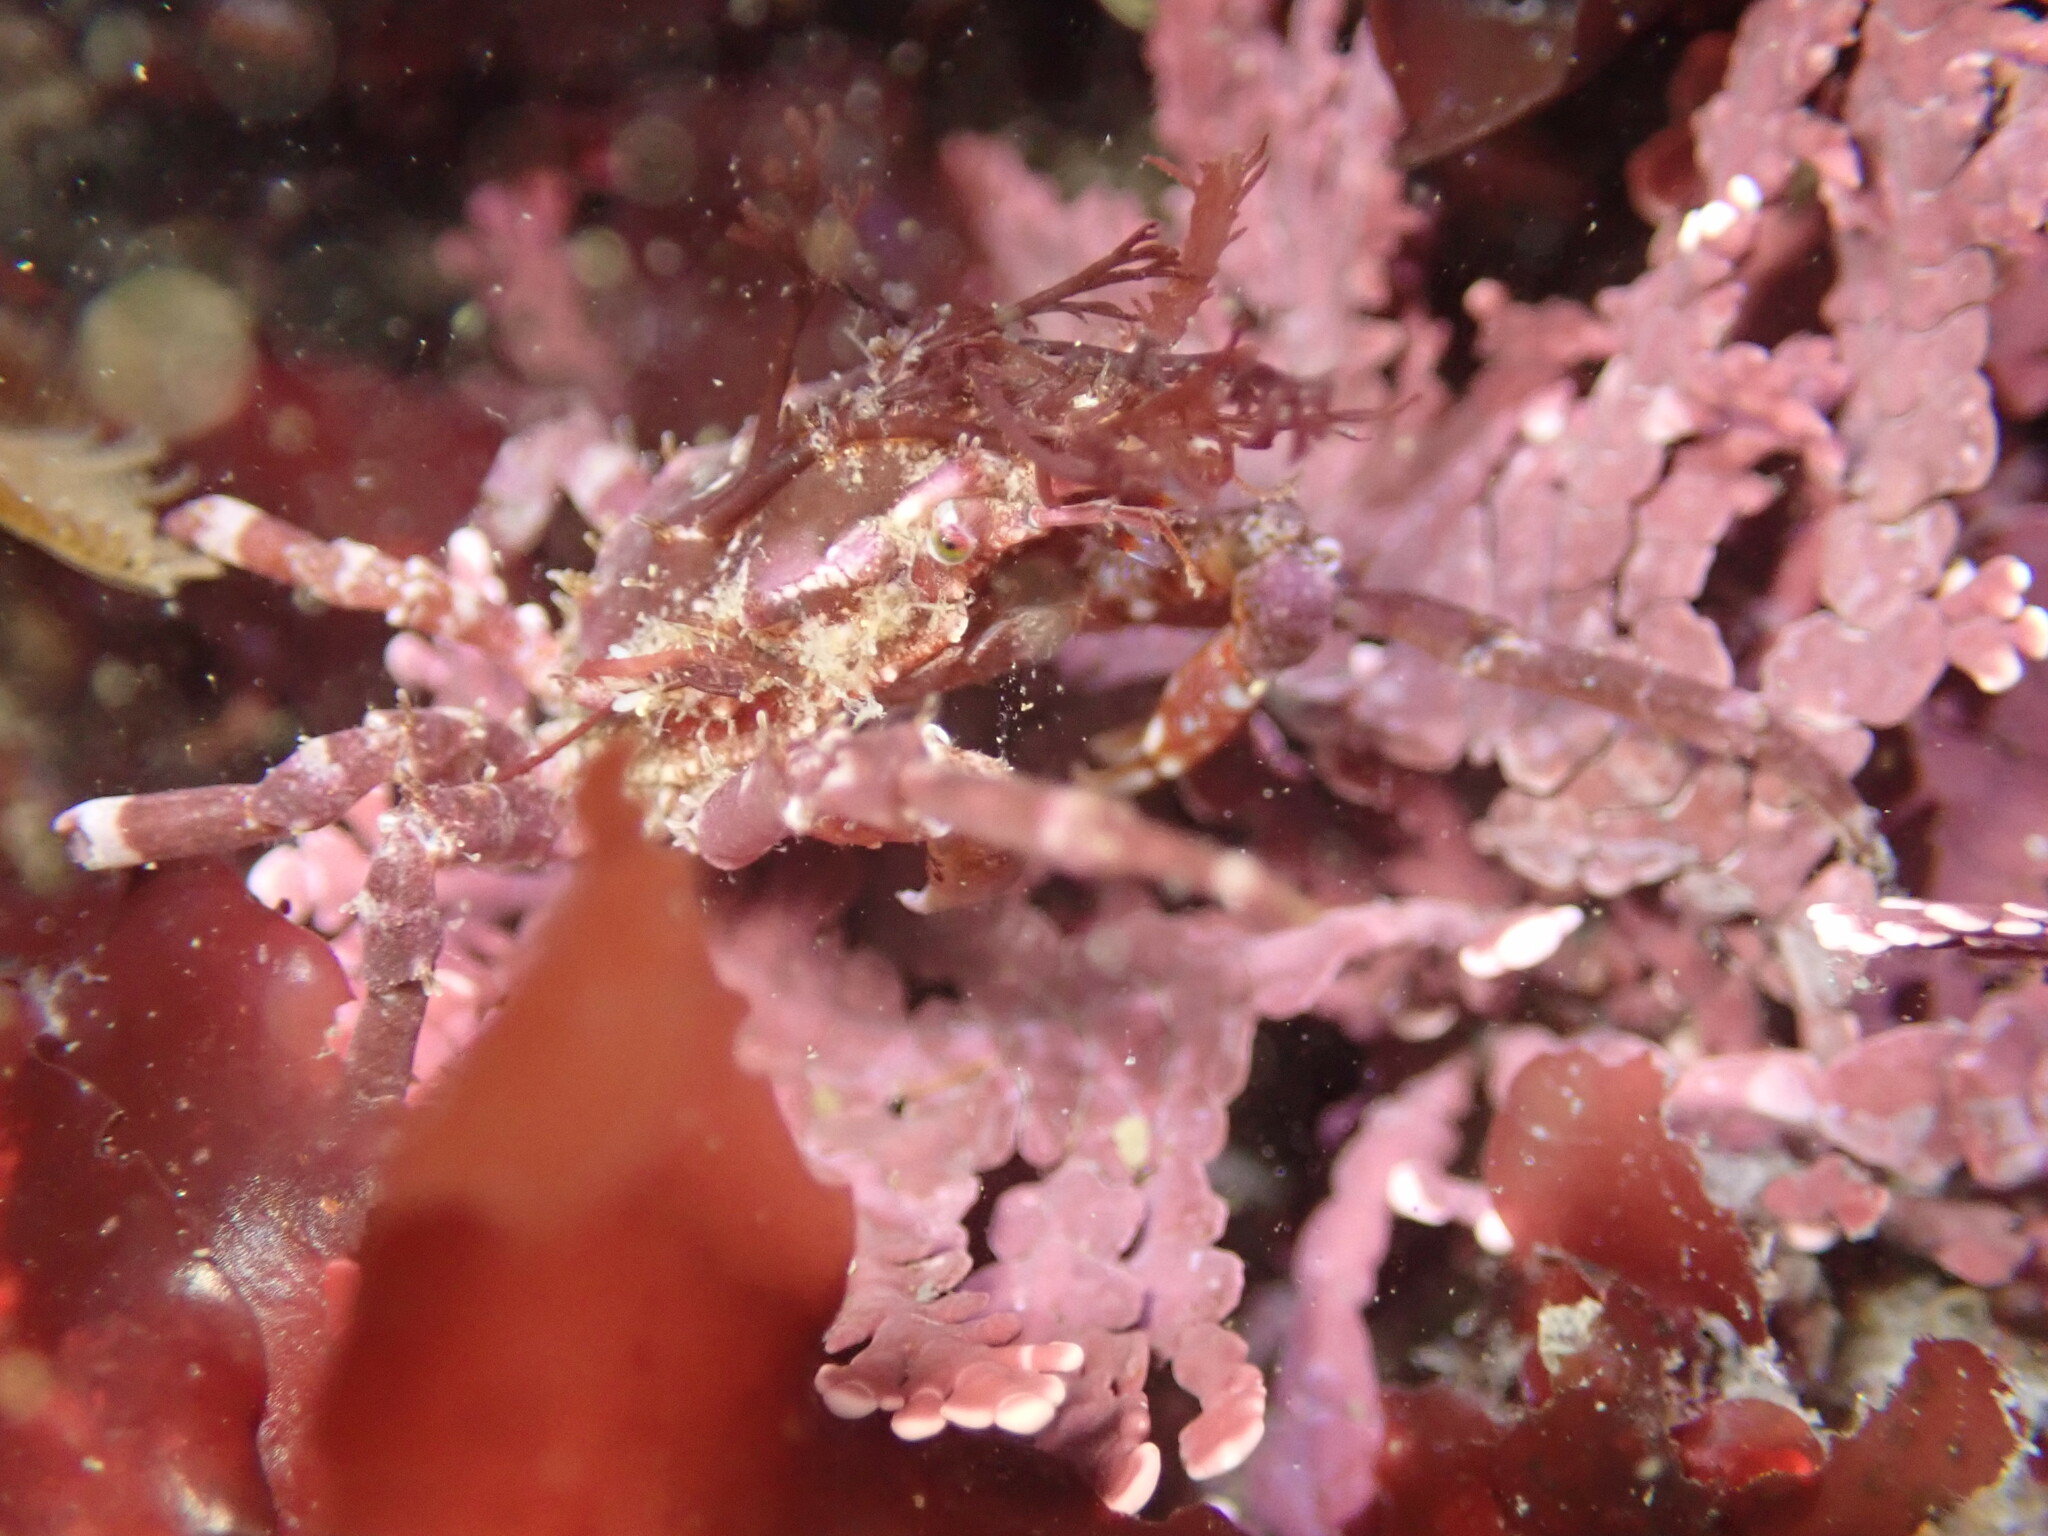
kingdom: Animalia
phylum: Arthropoda
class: Malacostraca
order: Decapoda
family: Epialtidae
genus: Pugettia
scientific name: Pugettia richii
